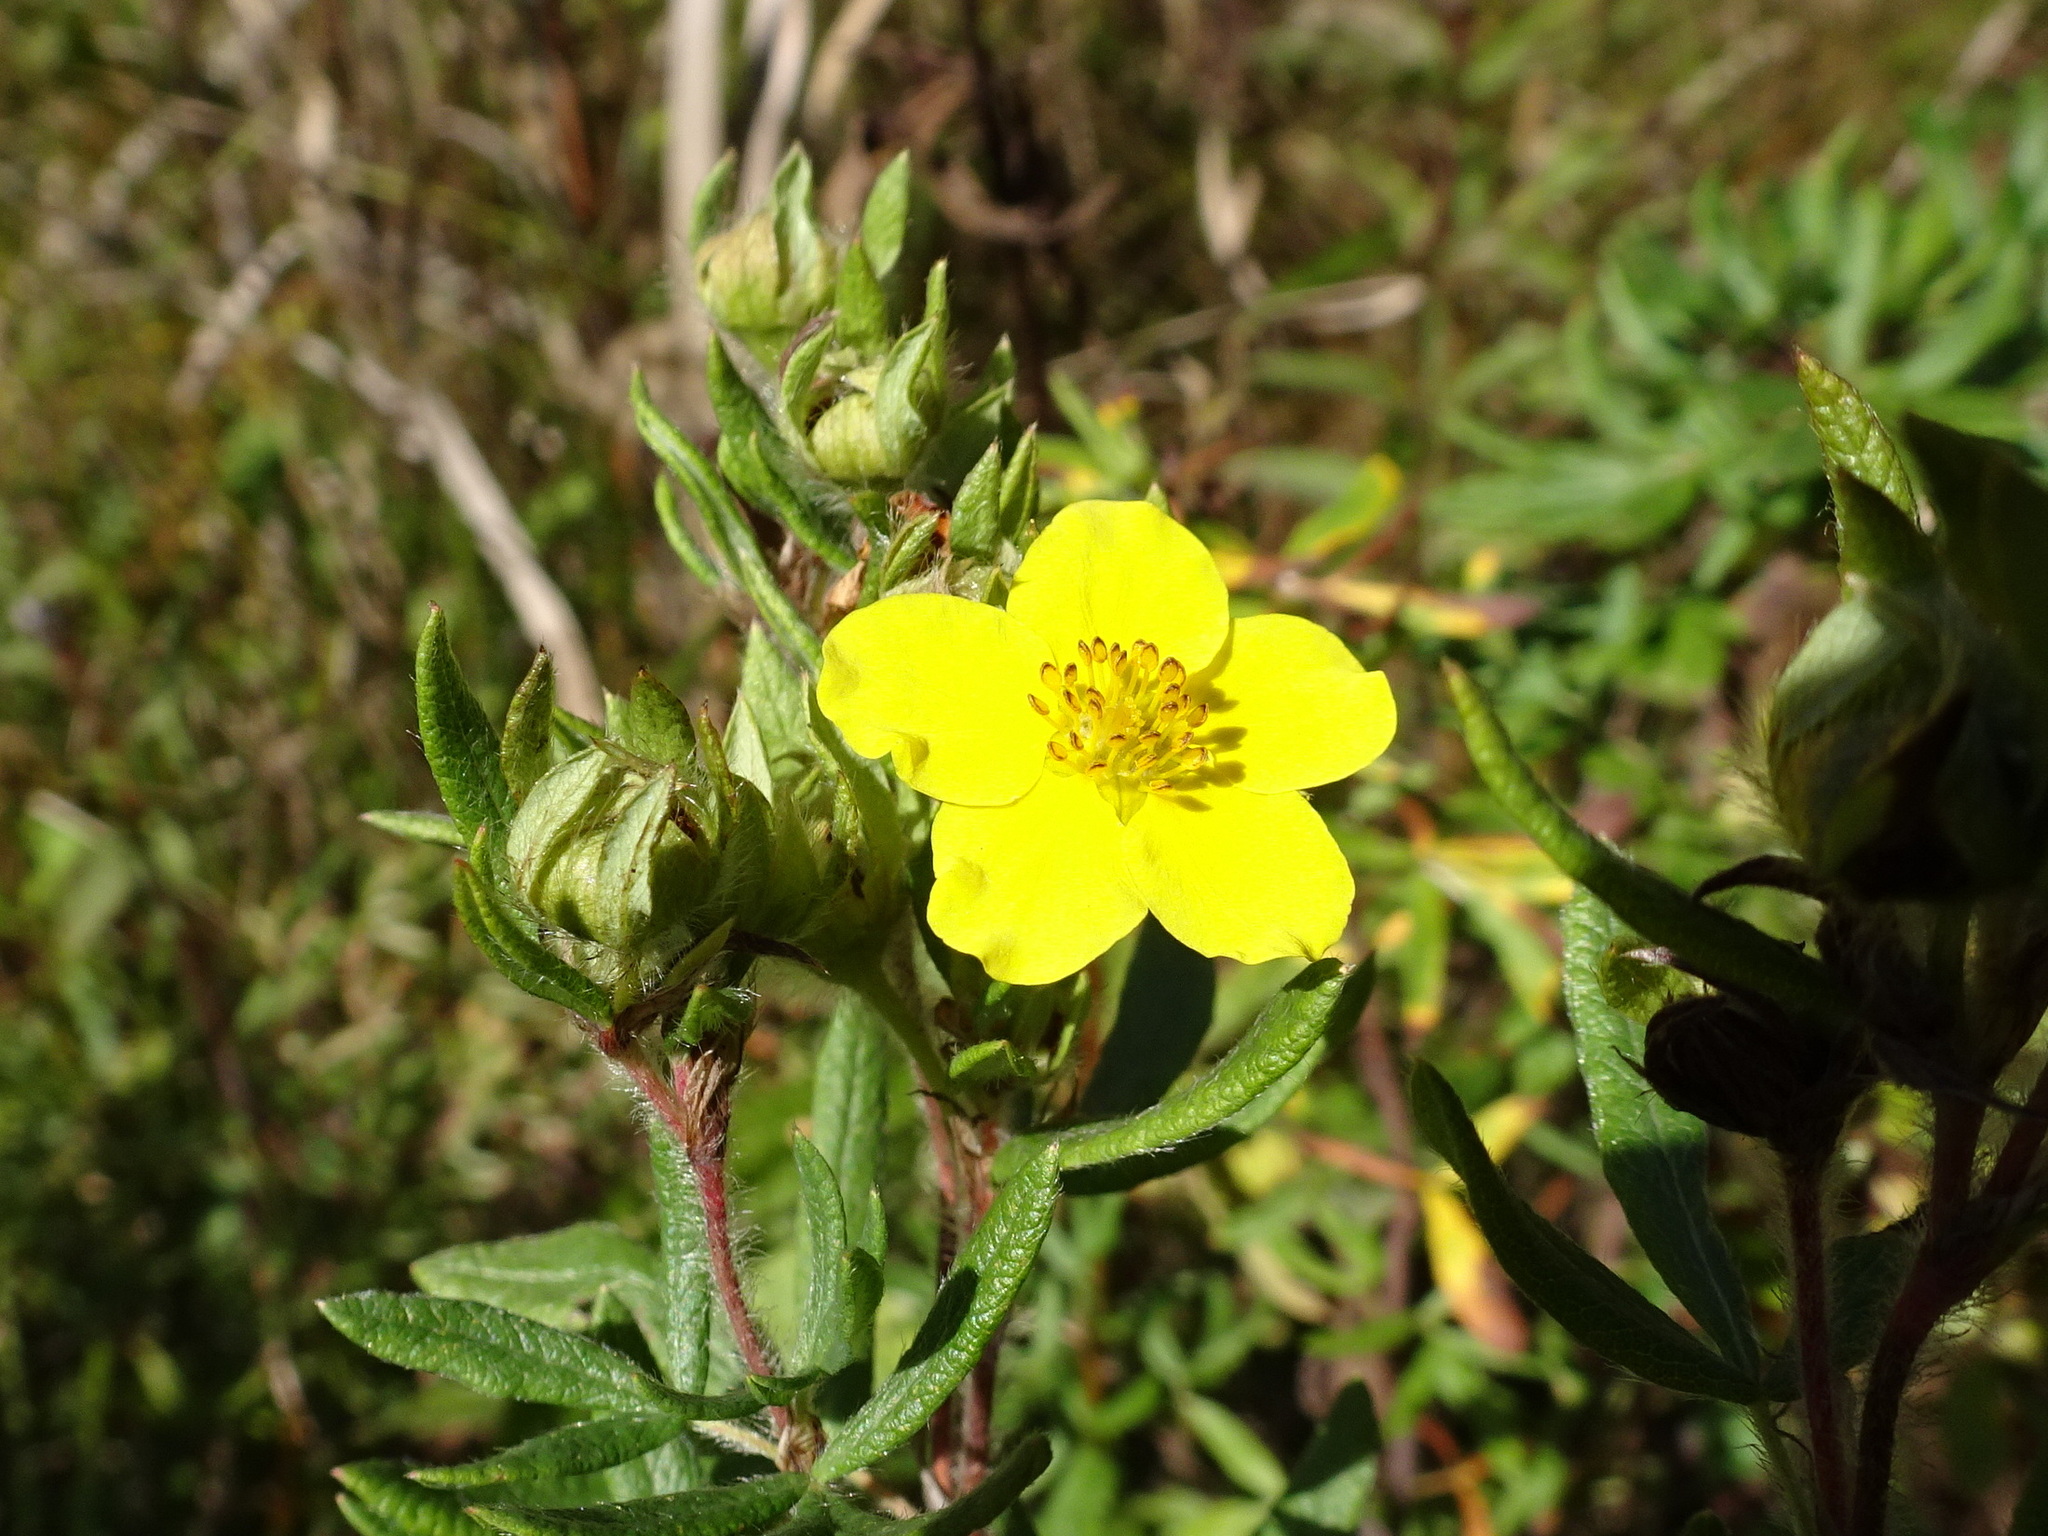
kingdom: Plantae
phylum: Tracheophyta
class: Magnoliopsida
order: Rosales
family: Rosaceae
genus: Dasiphora
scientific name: Dasiphora fruticosa
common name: Shrubby cinquefoil
